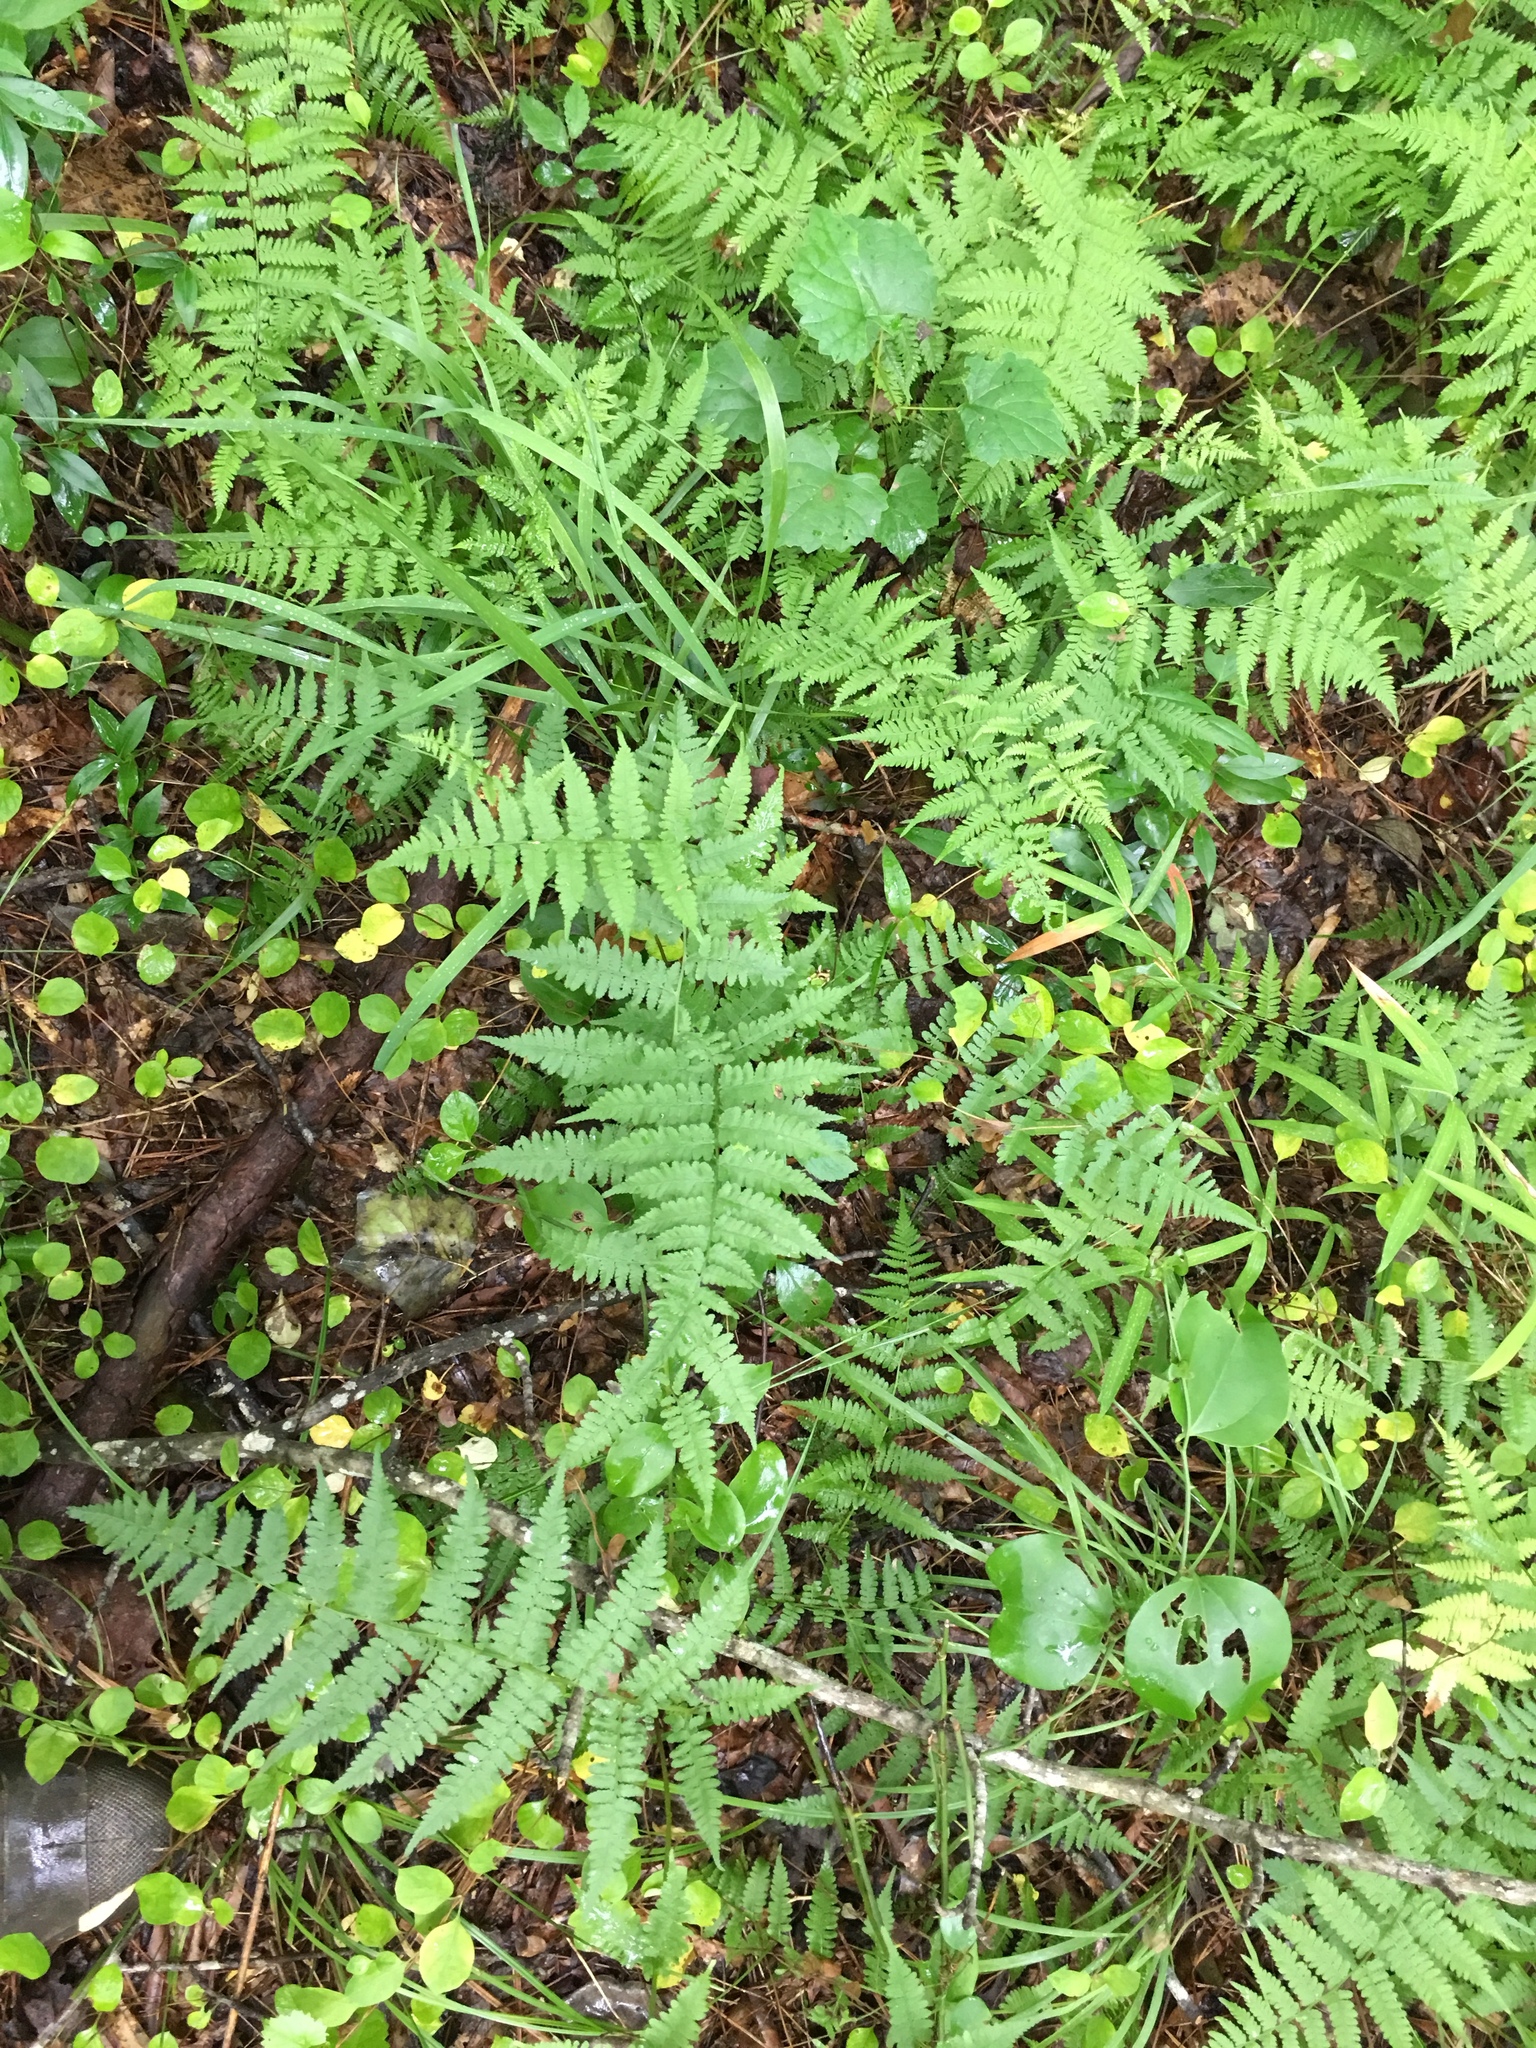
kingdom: Plantae
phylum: Tracheophyta
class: Polypodiopsida
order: Polypodiales
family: Athyriaceae
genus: Athyrium
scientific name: Athyrium asplenioides
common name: Southern lady fern
